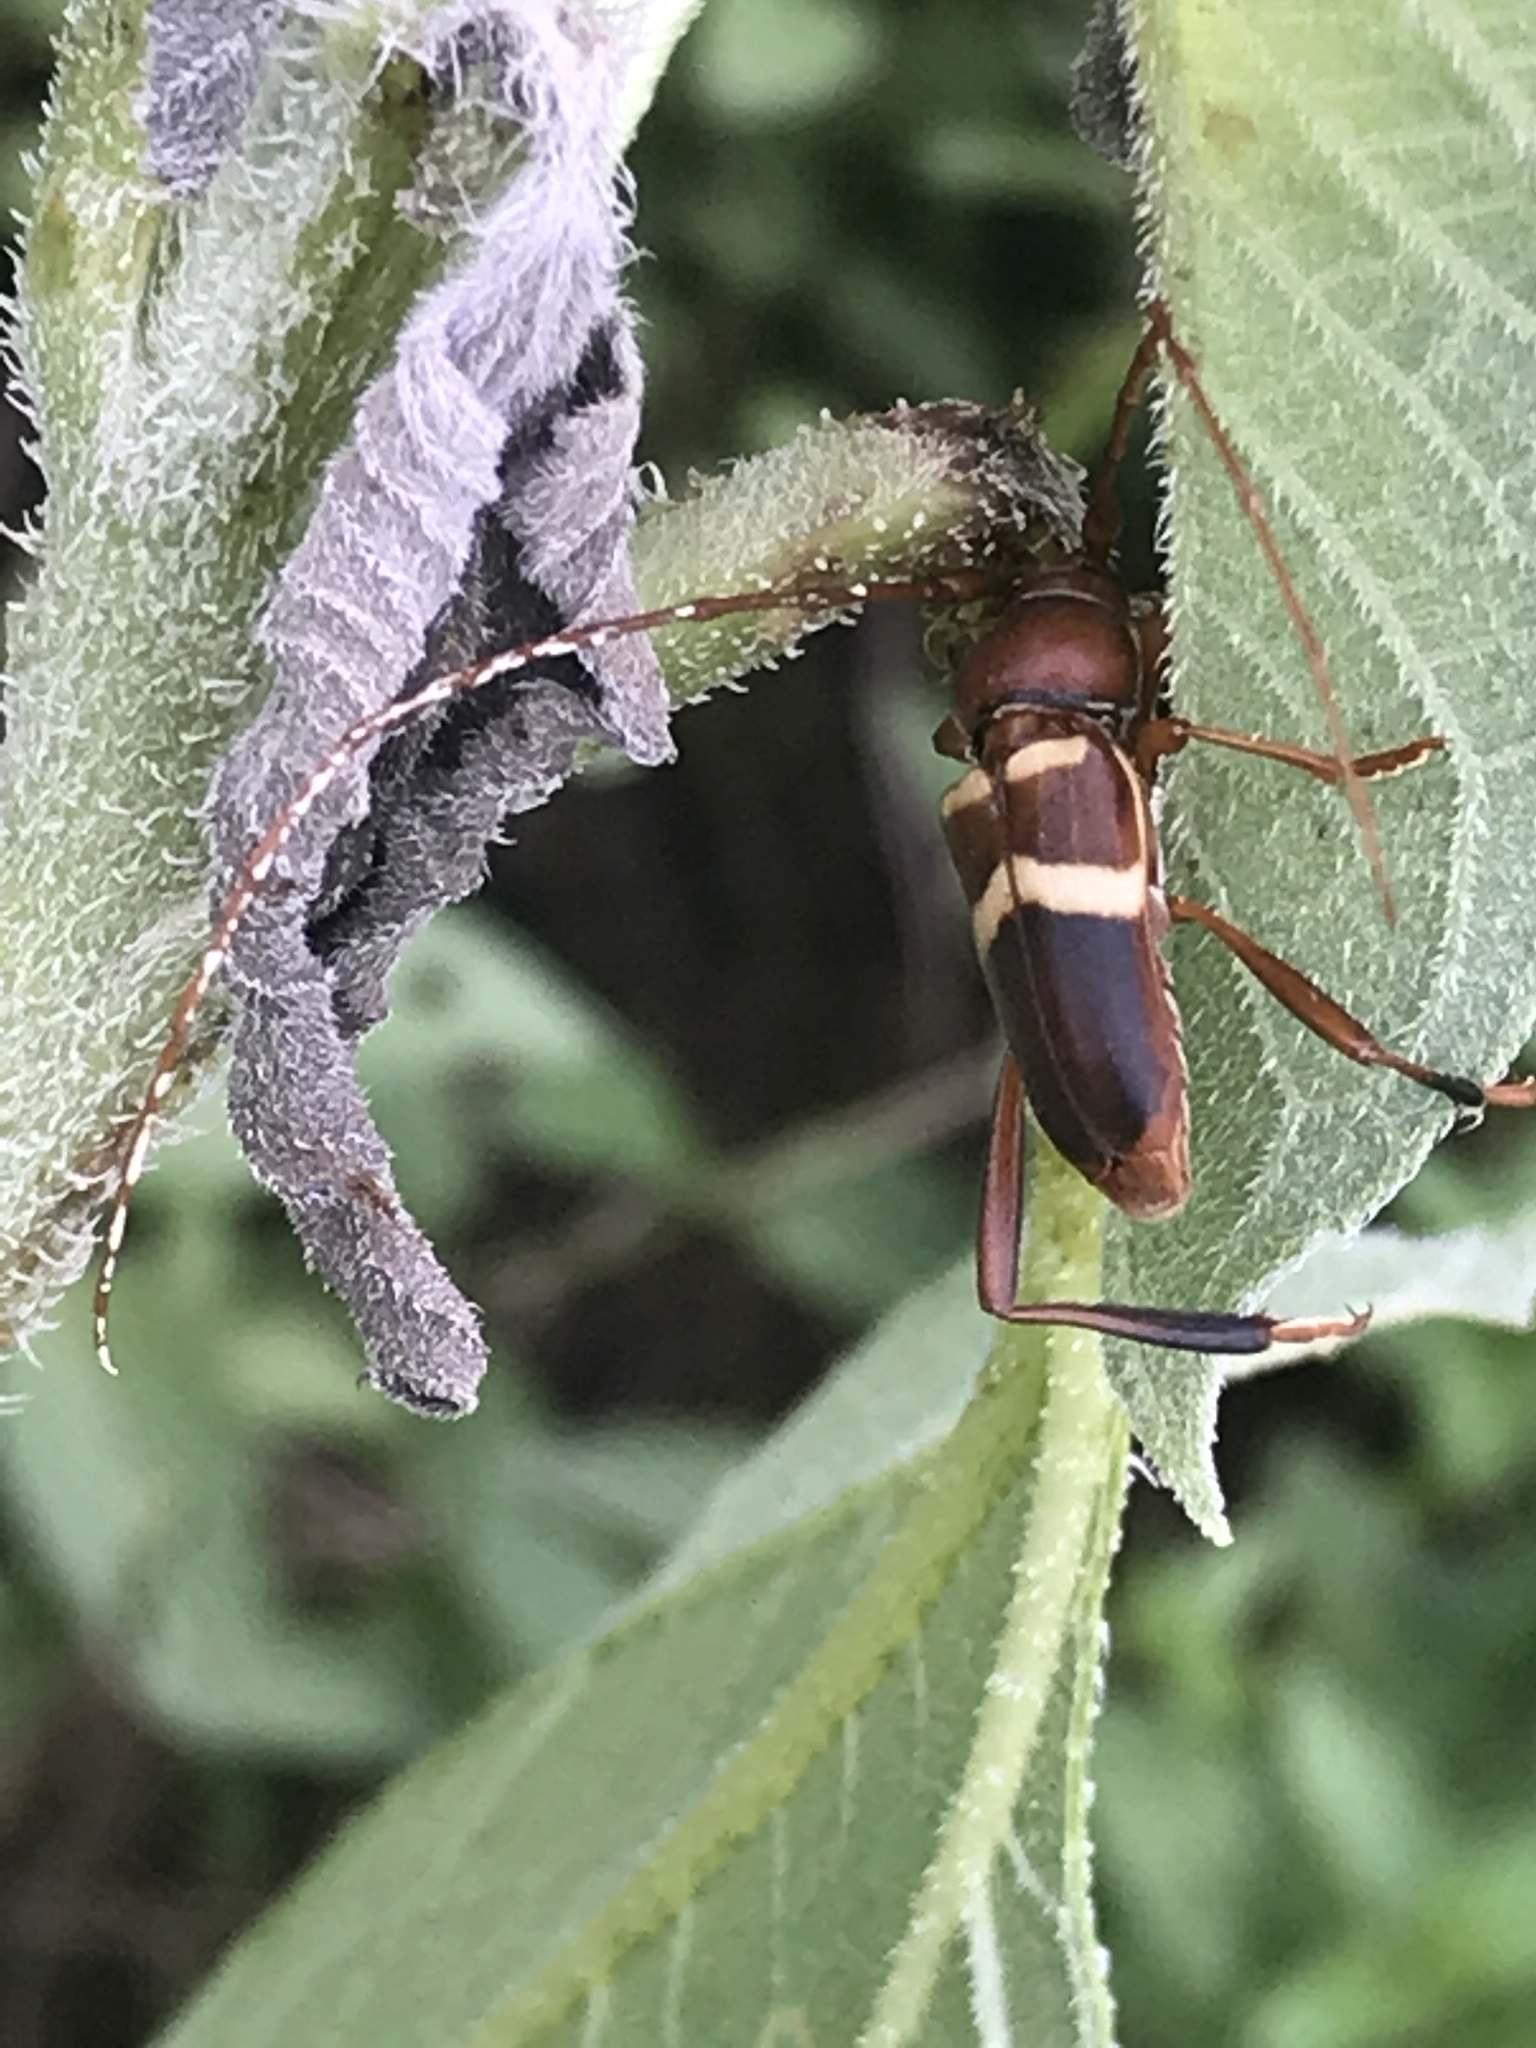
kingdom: Animalia
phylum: Arthropoda
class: Insecta
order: Coleoptera
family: Cerambycidae
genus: Aethecerinus
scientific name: Aethecerinus wilsonii
